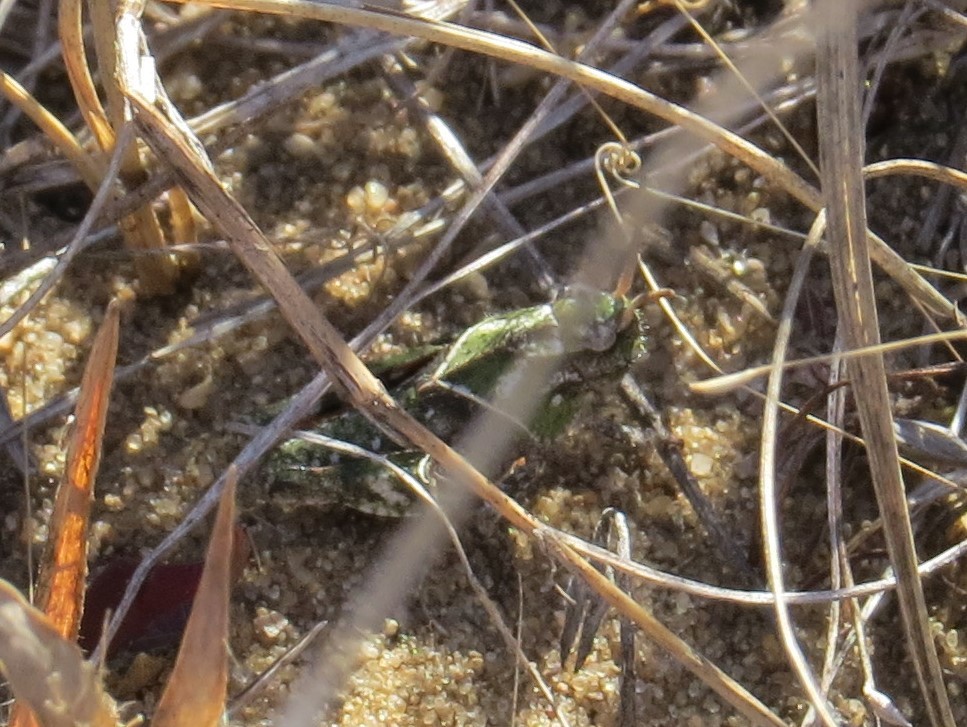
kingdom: Animalia
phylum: Arthropoda
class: Insecta
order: Orthoptera
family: Acrididae
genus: Pardalophora
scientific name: Pardalophora apiculata
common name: Coral-winged locust
